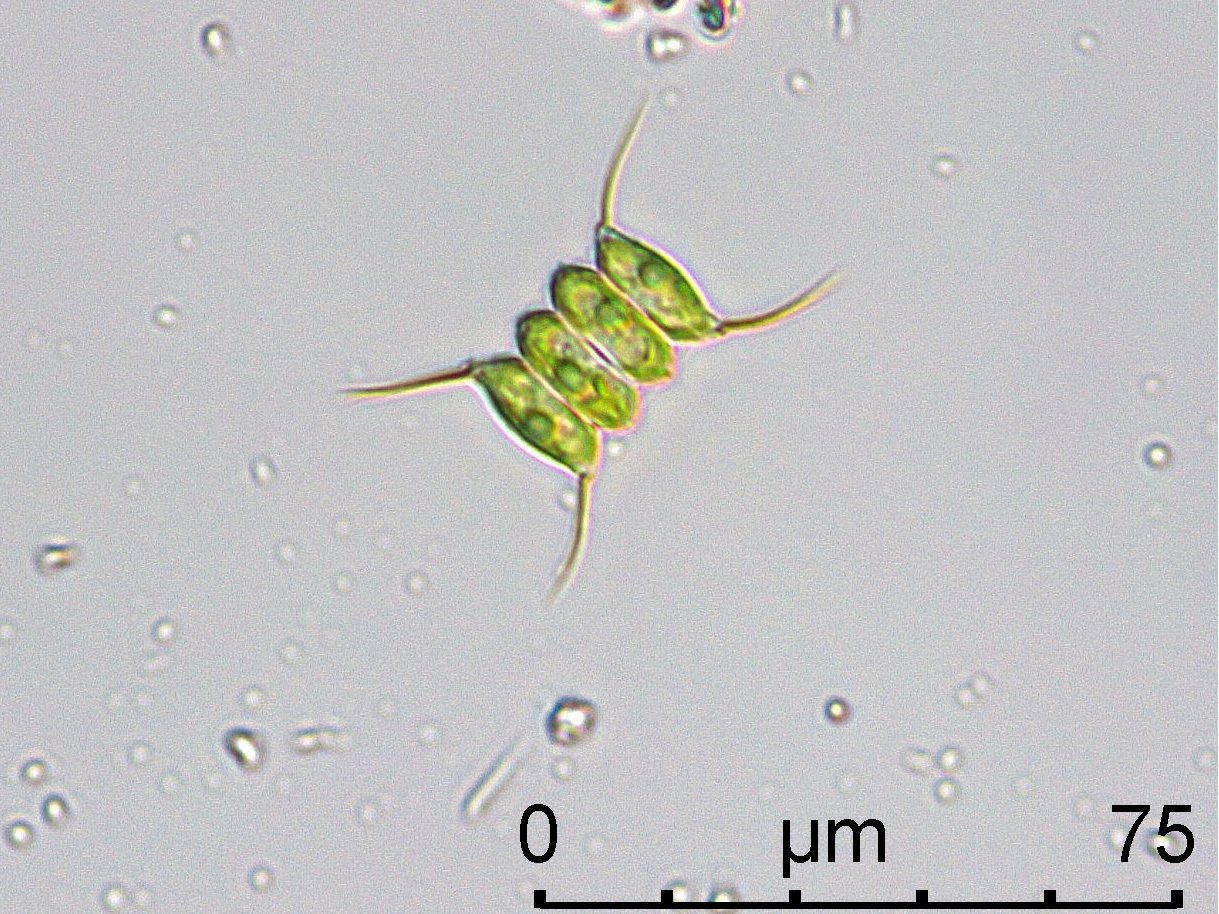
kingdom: Plantae
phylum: Chlorophyta
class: Chlorophyceae
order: Sphaeropleales
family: Scenedesmaceae
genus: Desmodesmus
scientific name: Desmodesmus communis
